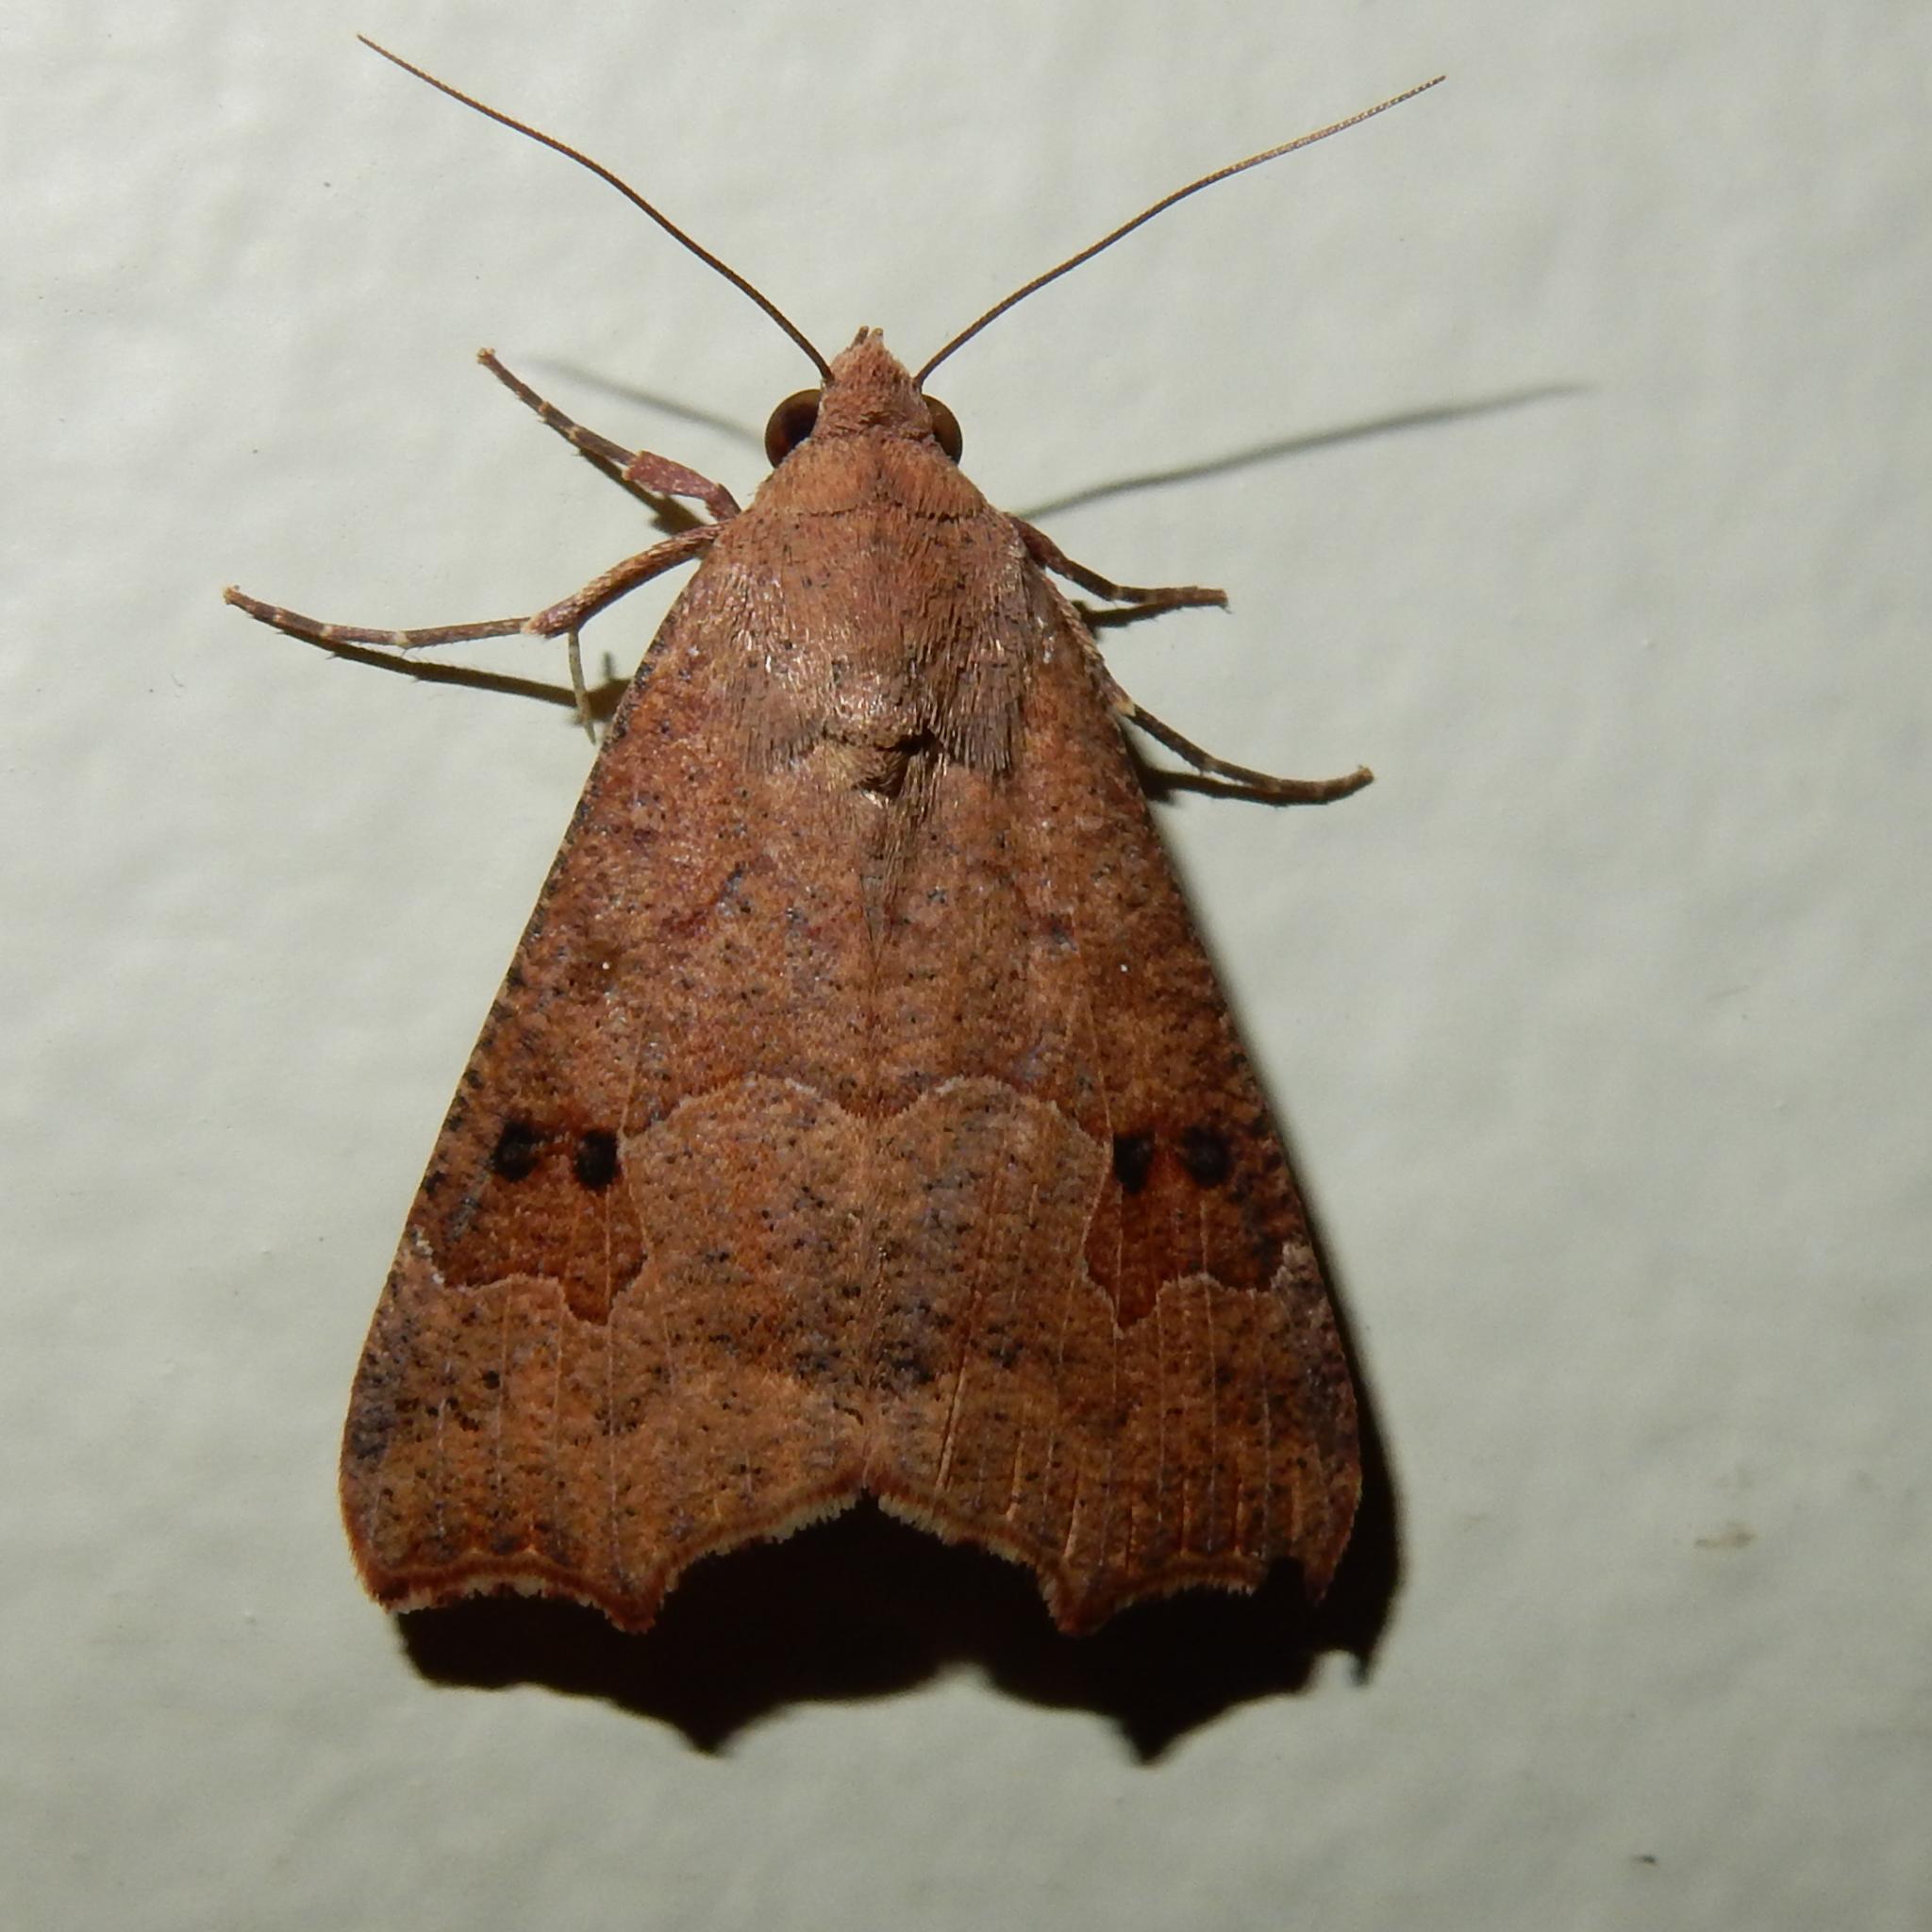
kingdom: Animalia
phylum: Arthropoda
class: Insecta
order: Lepidoptera
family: Erebidae
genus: Anomis
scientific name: Anomis sabulifera
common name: Angled gem
